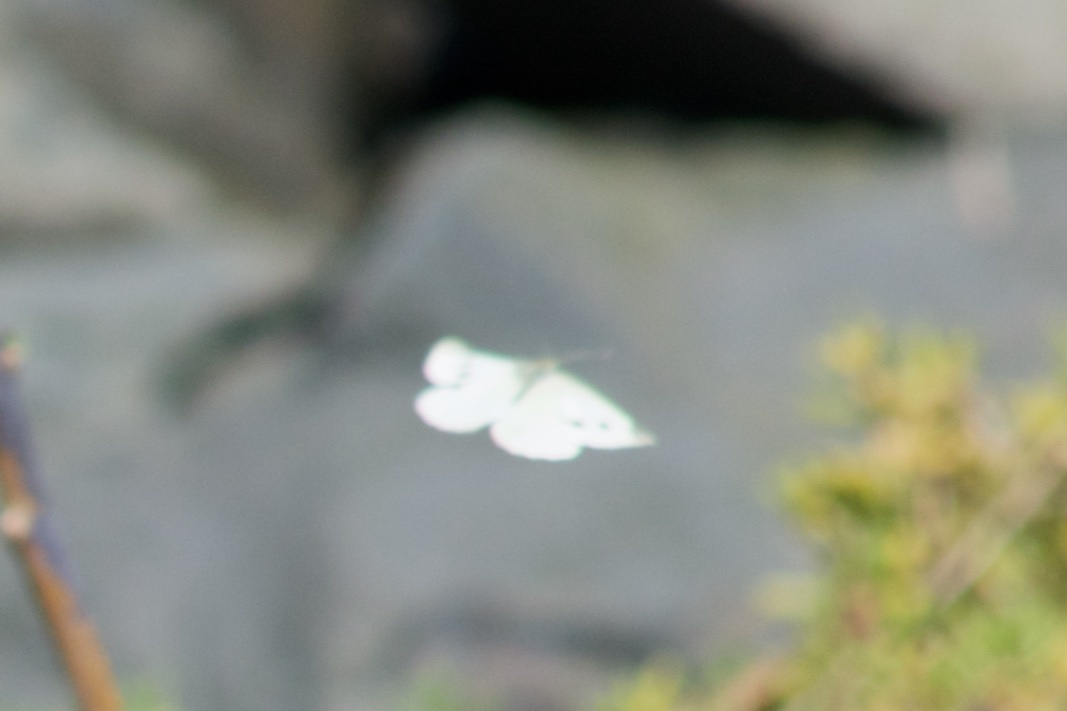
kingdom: Animalia
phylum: Arthropoda
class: Insecta
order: Lepidoptera
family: Pieridae
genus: Pieris
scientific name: Pieris rapae
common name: Small white
